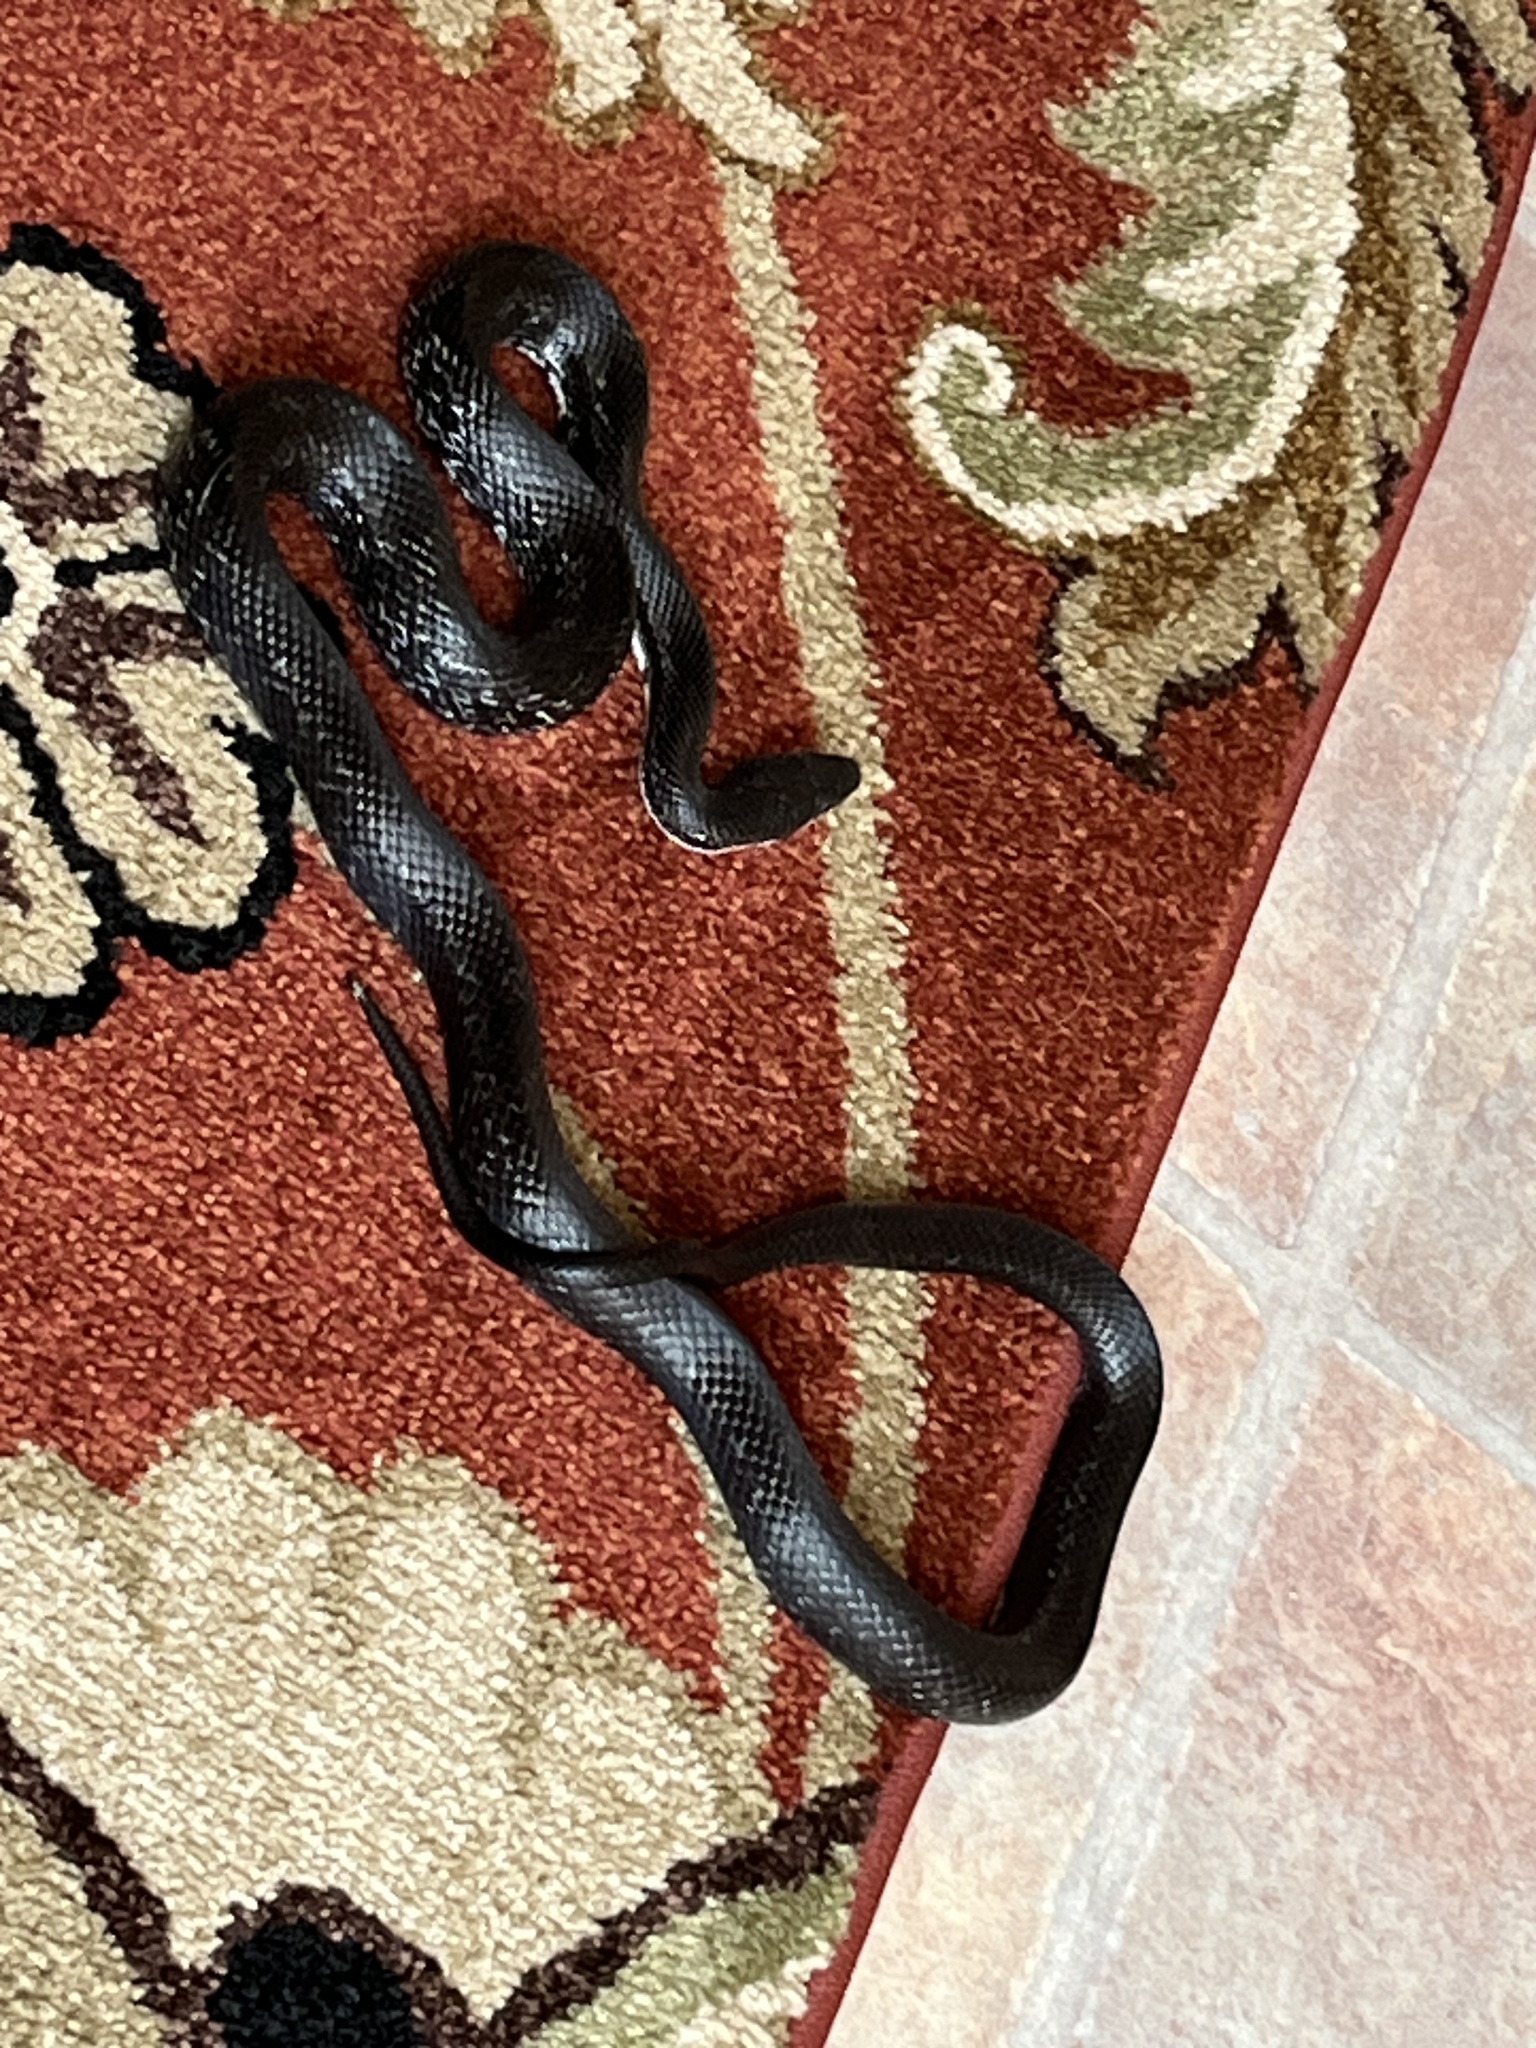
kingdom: Animalia
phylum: Chordata
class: Squamata
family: Colubridae
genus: Pantherophis
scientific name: Pantherophis
